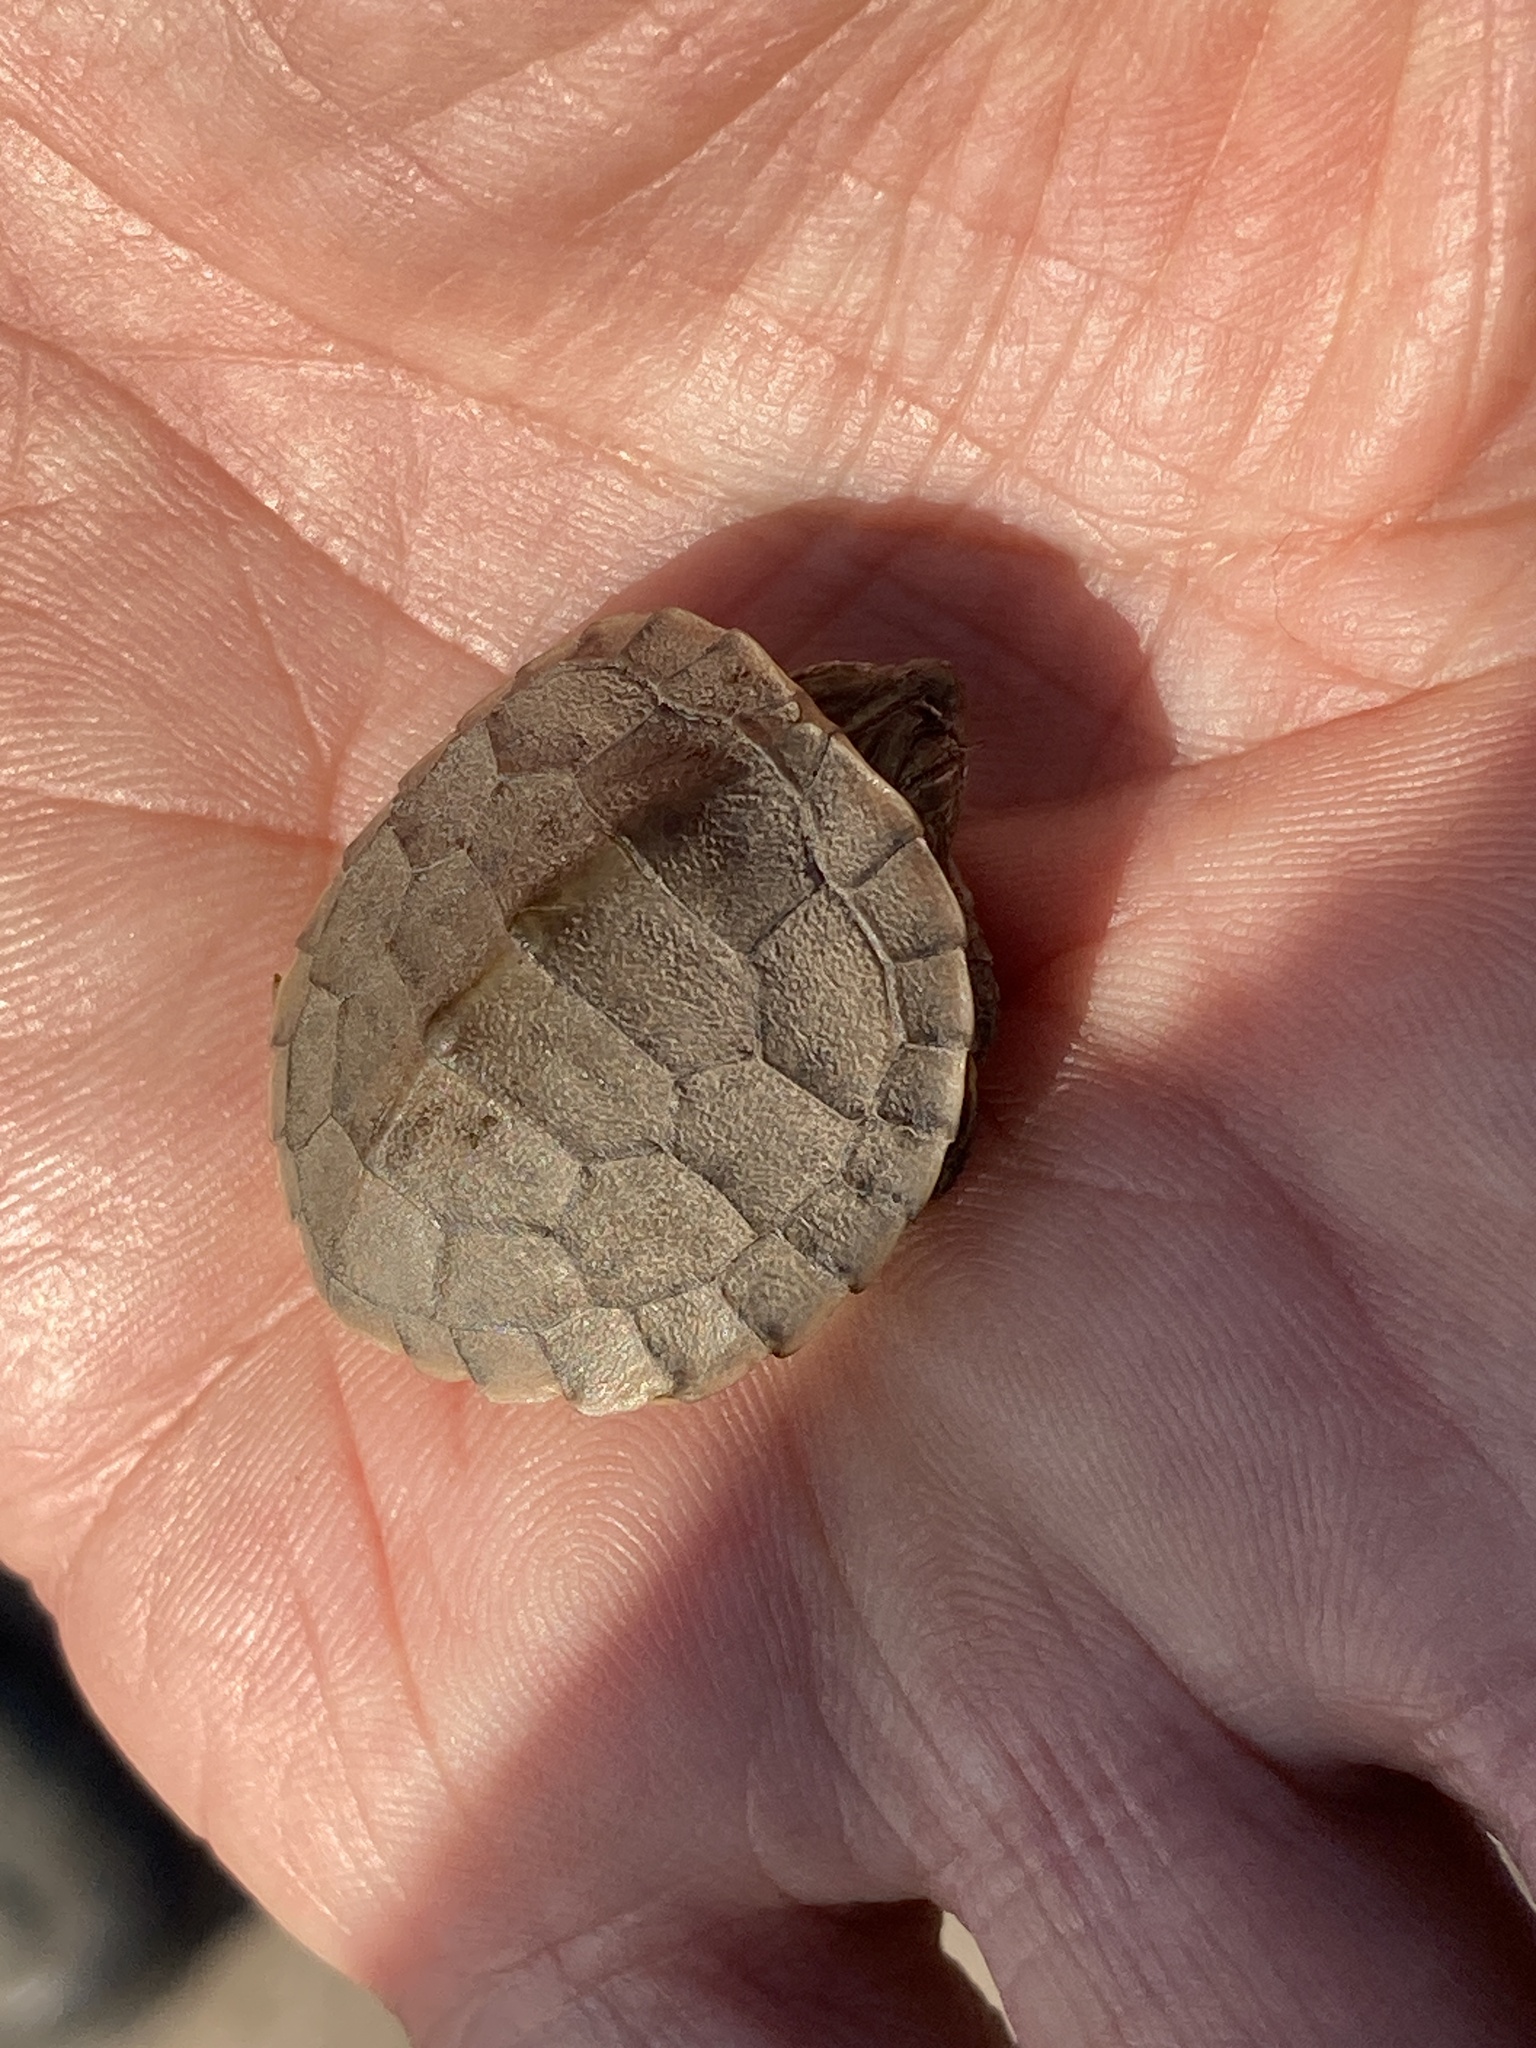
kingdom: Animalia
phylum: Chordata
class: Testudines
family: Emydidae
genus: Graptemys
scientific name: Graptemys geographica
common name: Common map turtle
